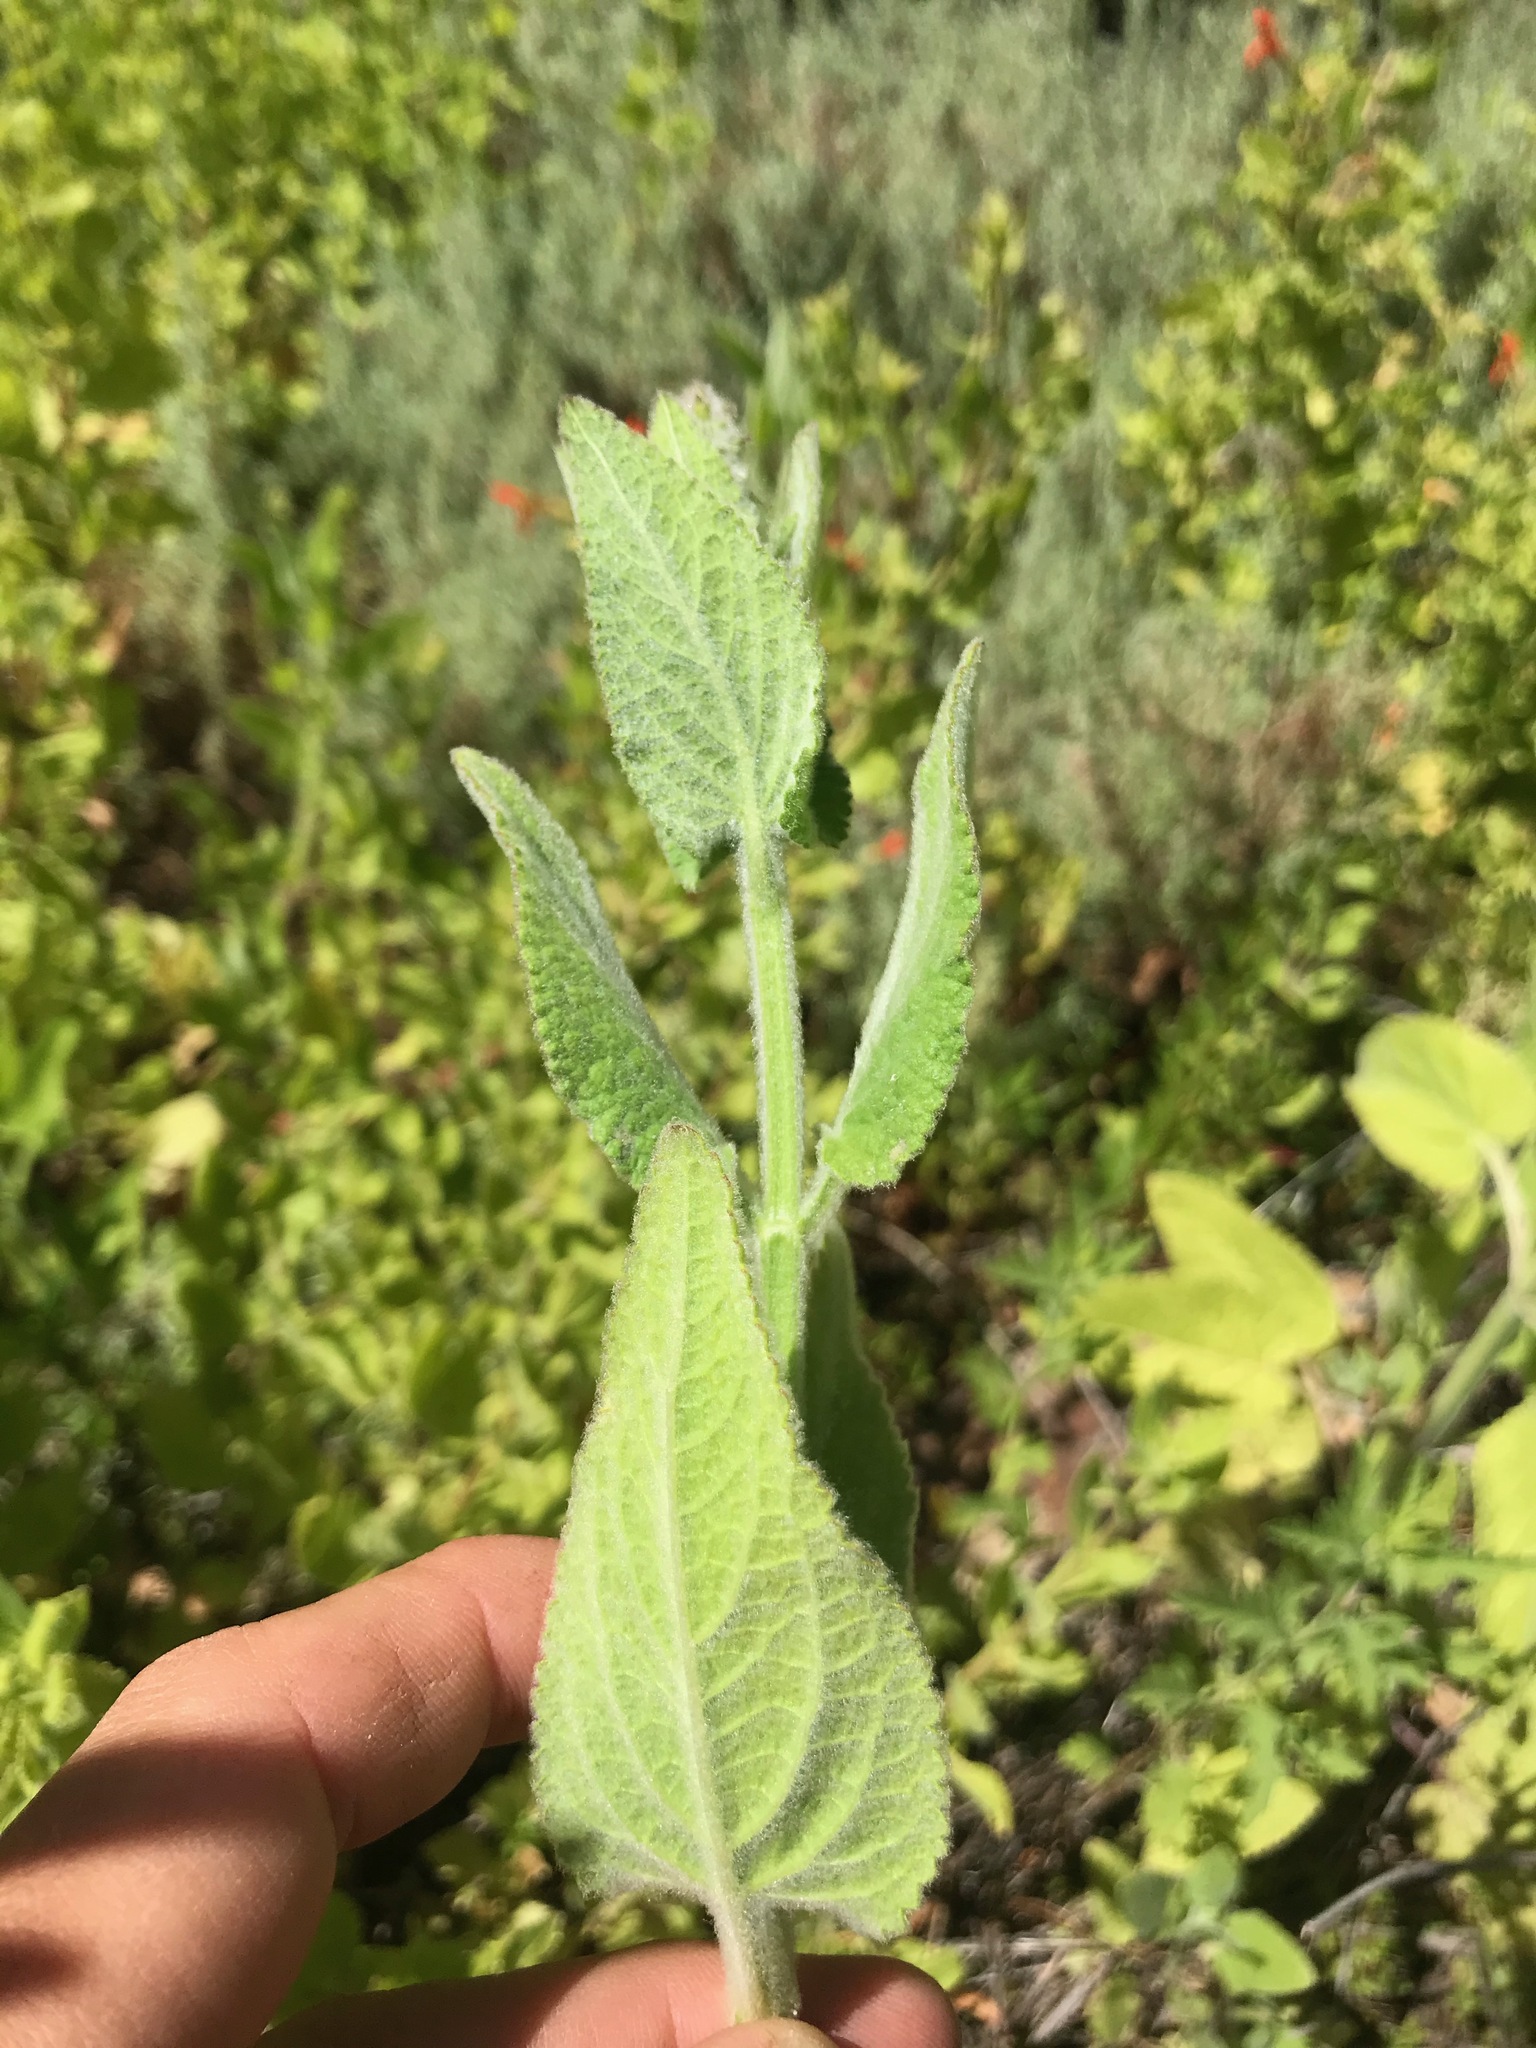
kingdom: Plantae
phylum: Tracheophyta
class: Magnoliopsida
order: Lamiales
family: Lamiaceae
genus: Stachys
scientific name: Stachys albens
